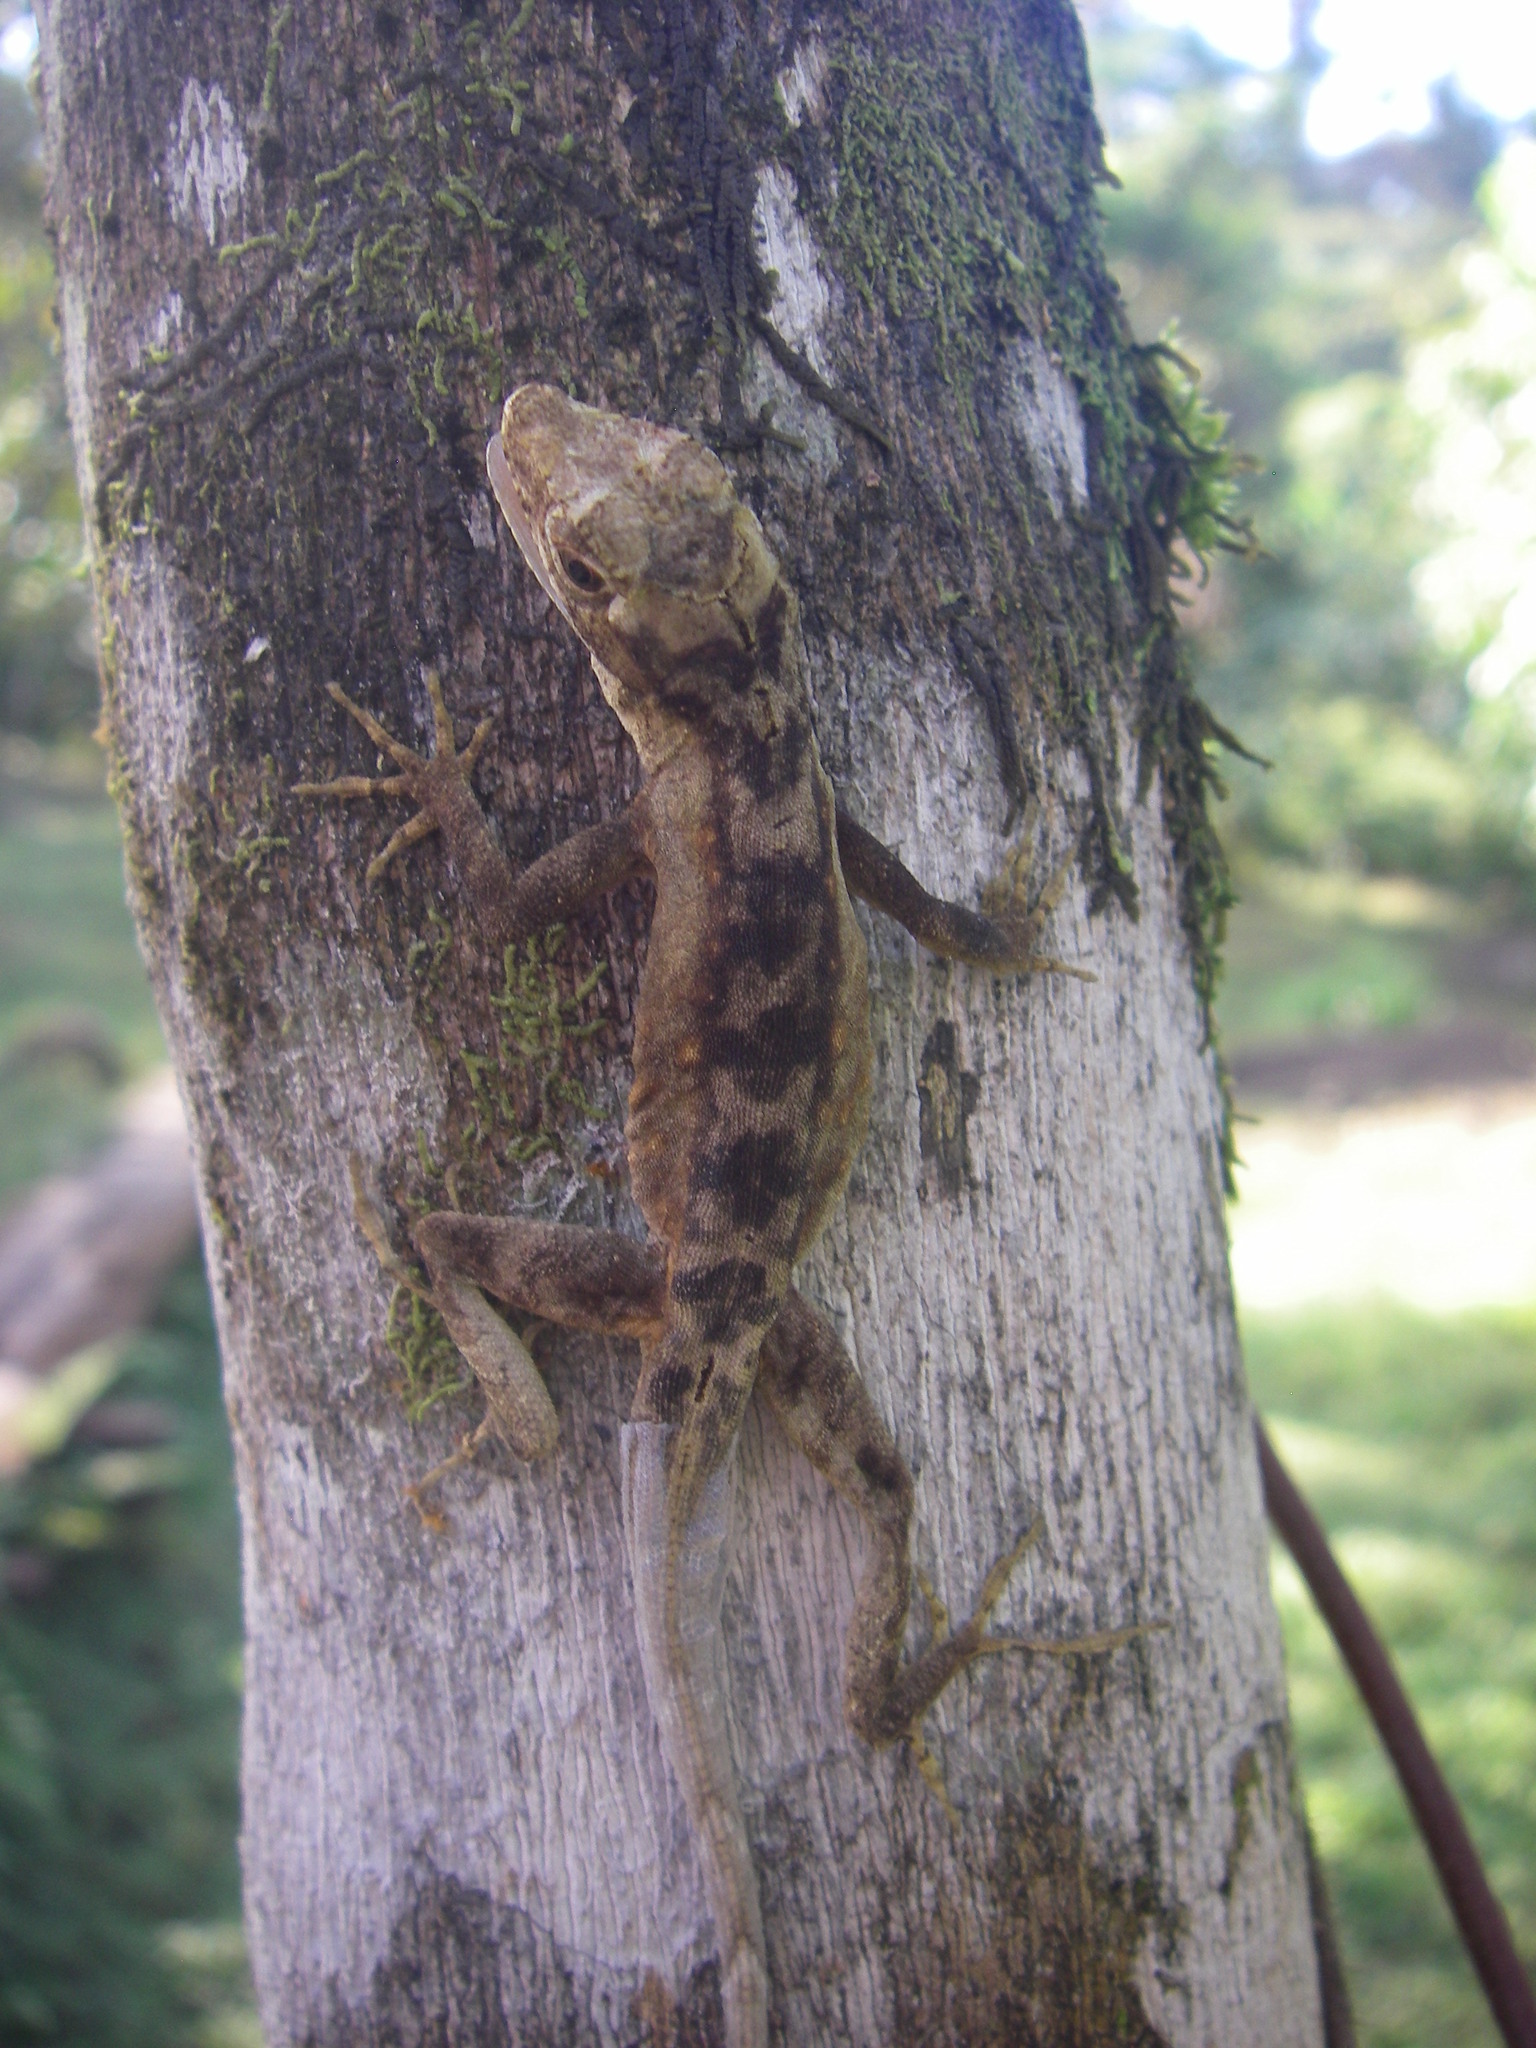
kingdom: Animalia
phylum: Chordata
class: Squamata
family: Dactyloidae
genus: Anolis
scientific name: Anolis lemurinus
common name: Ghost anole
